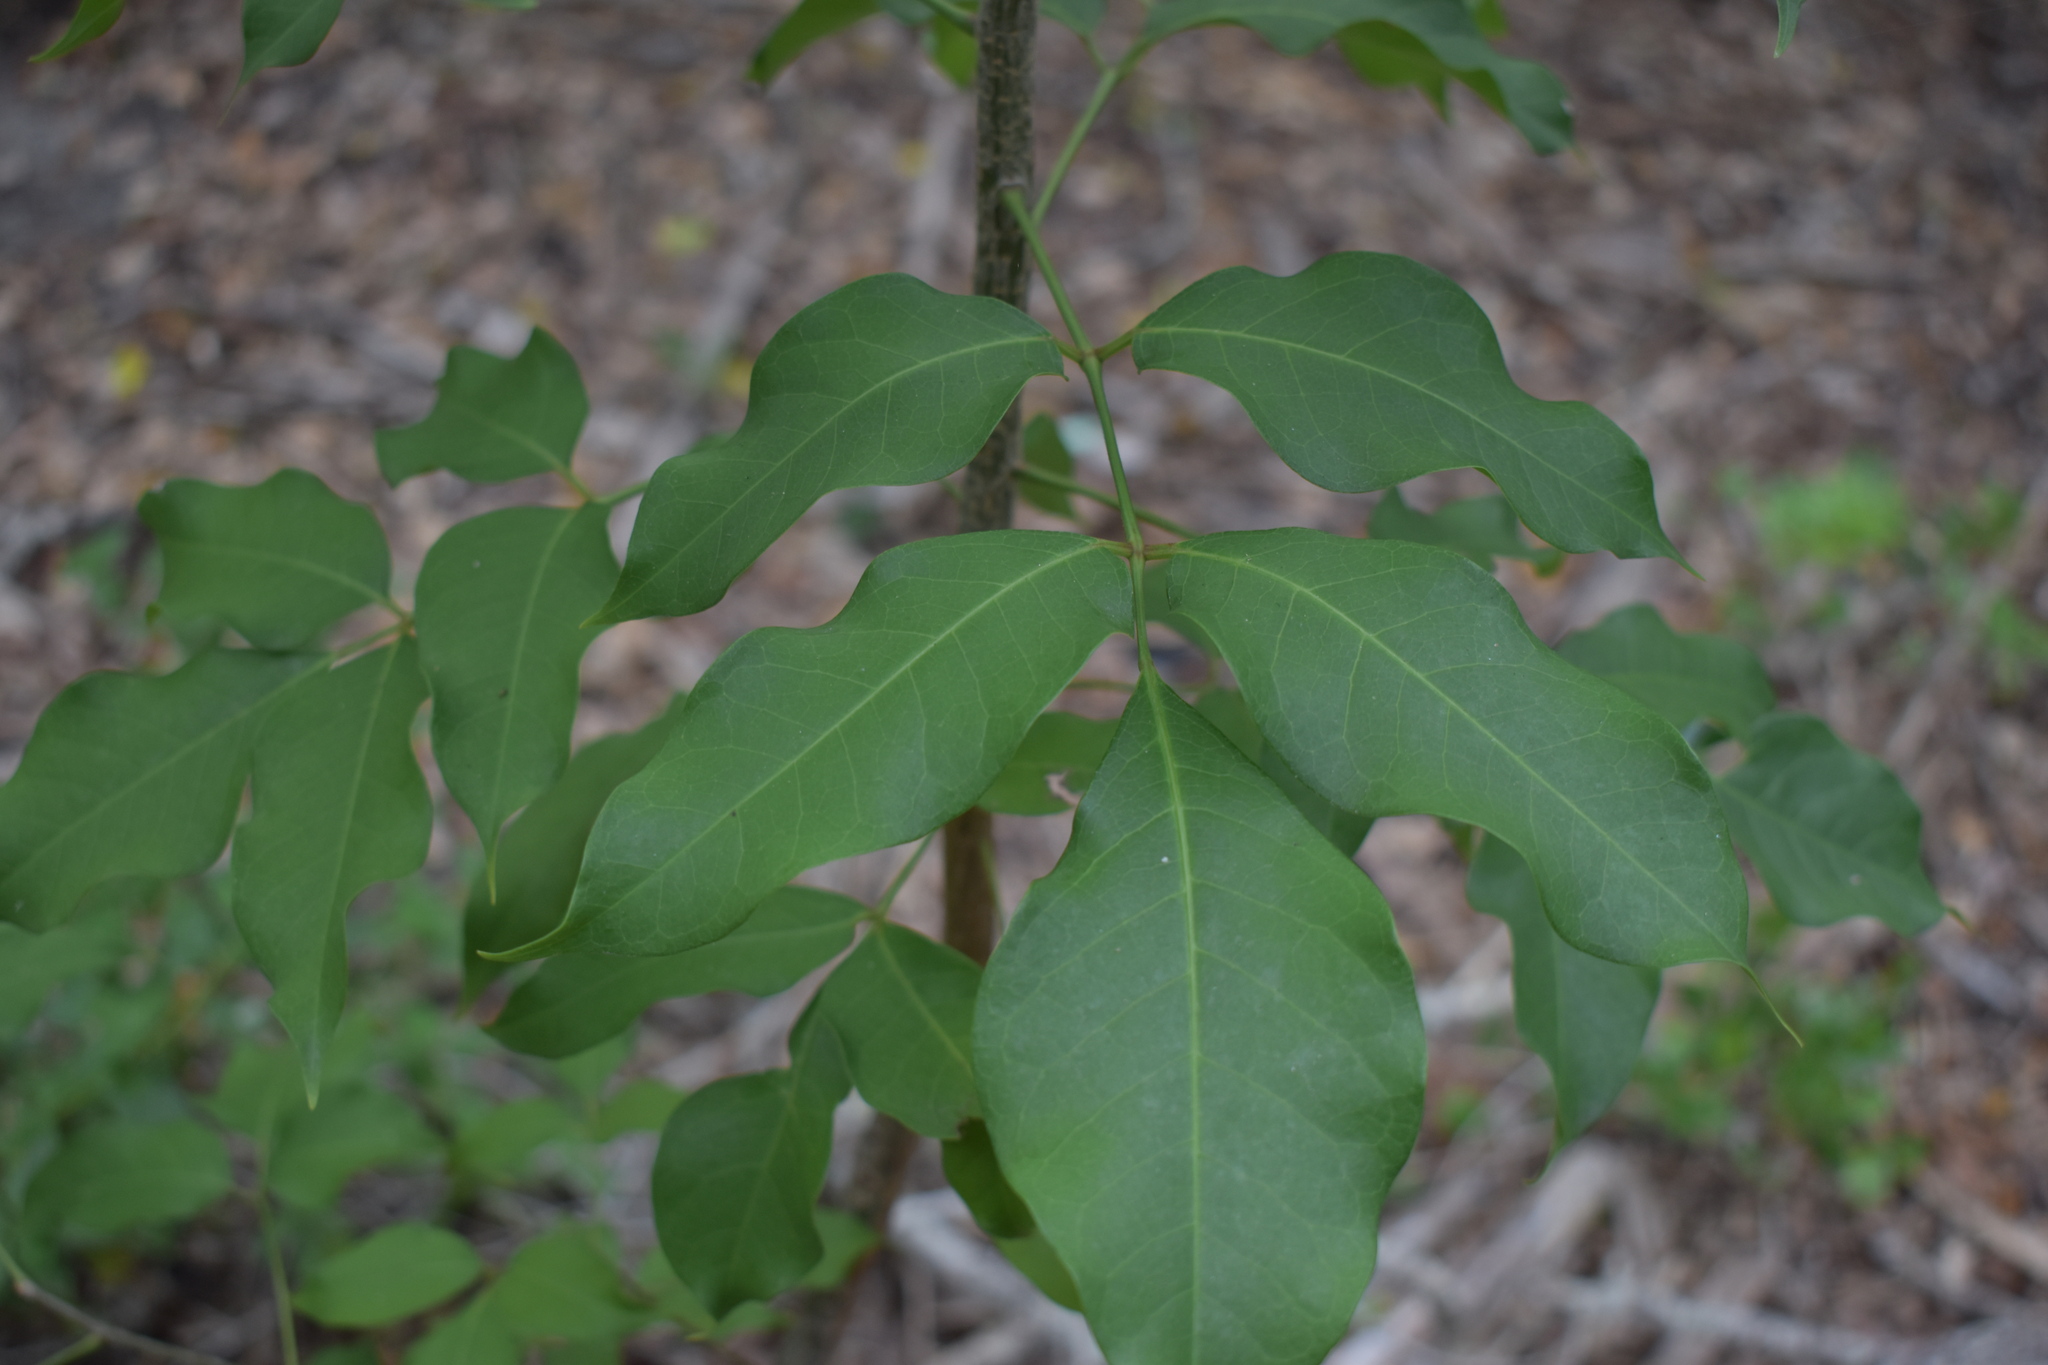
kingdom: Plantae
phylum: Tracheophyta
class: Magnoliopsida
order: Sapindales
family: Burseraceae
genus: Bursera
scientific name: Bursera simaruba
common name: Turpentine tree
